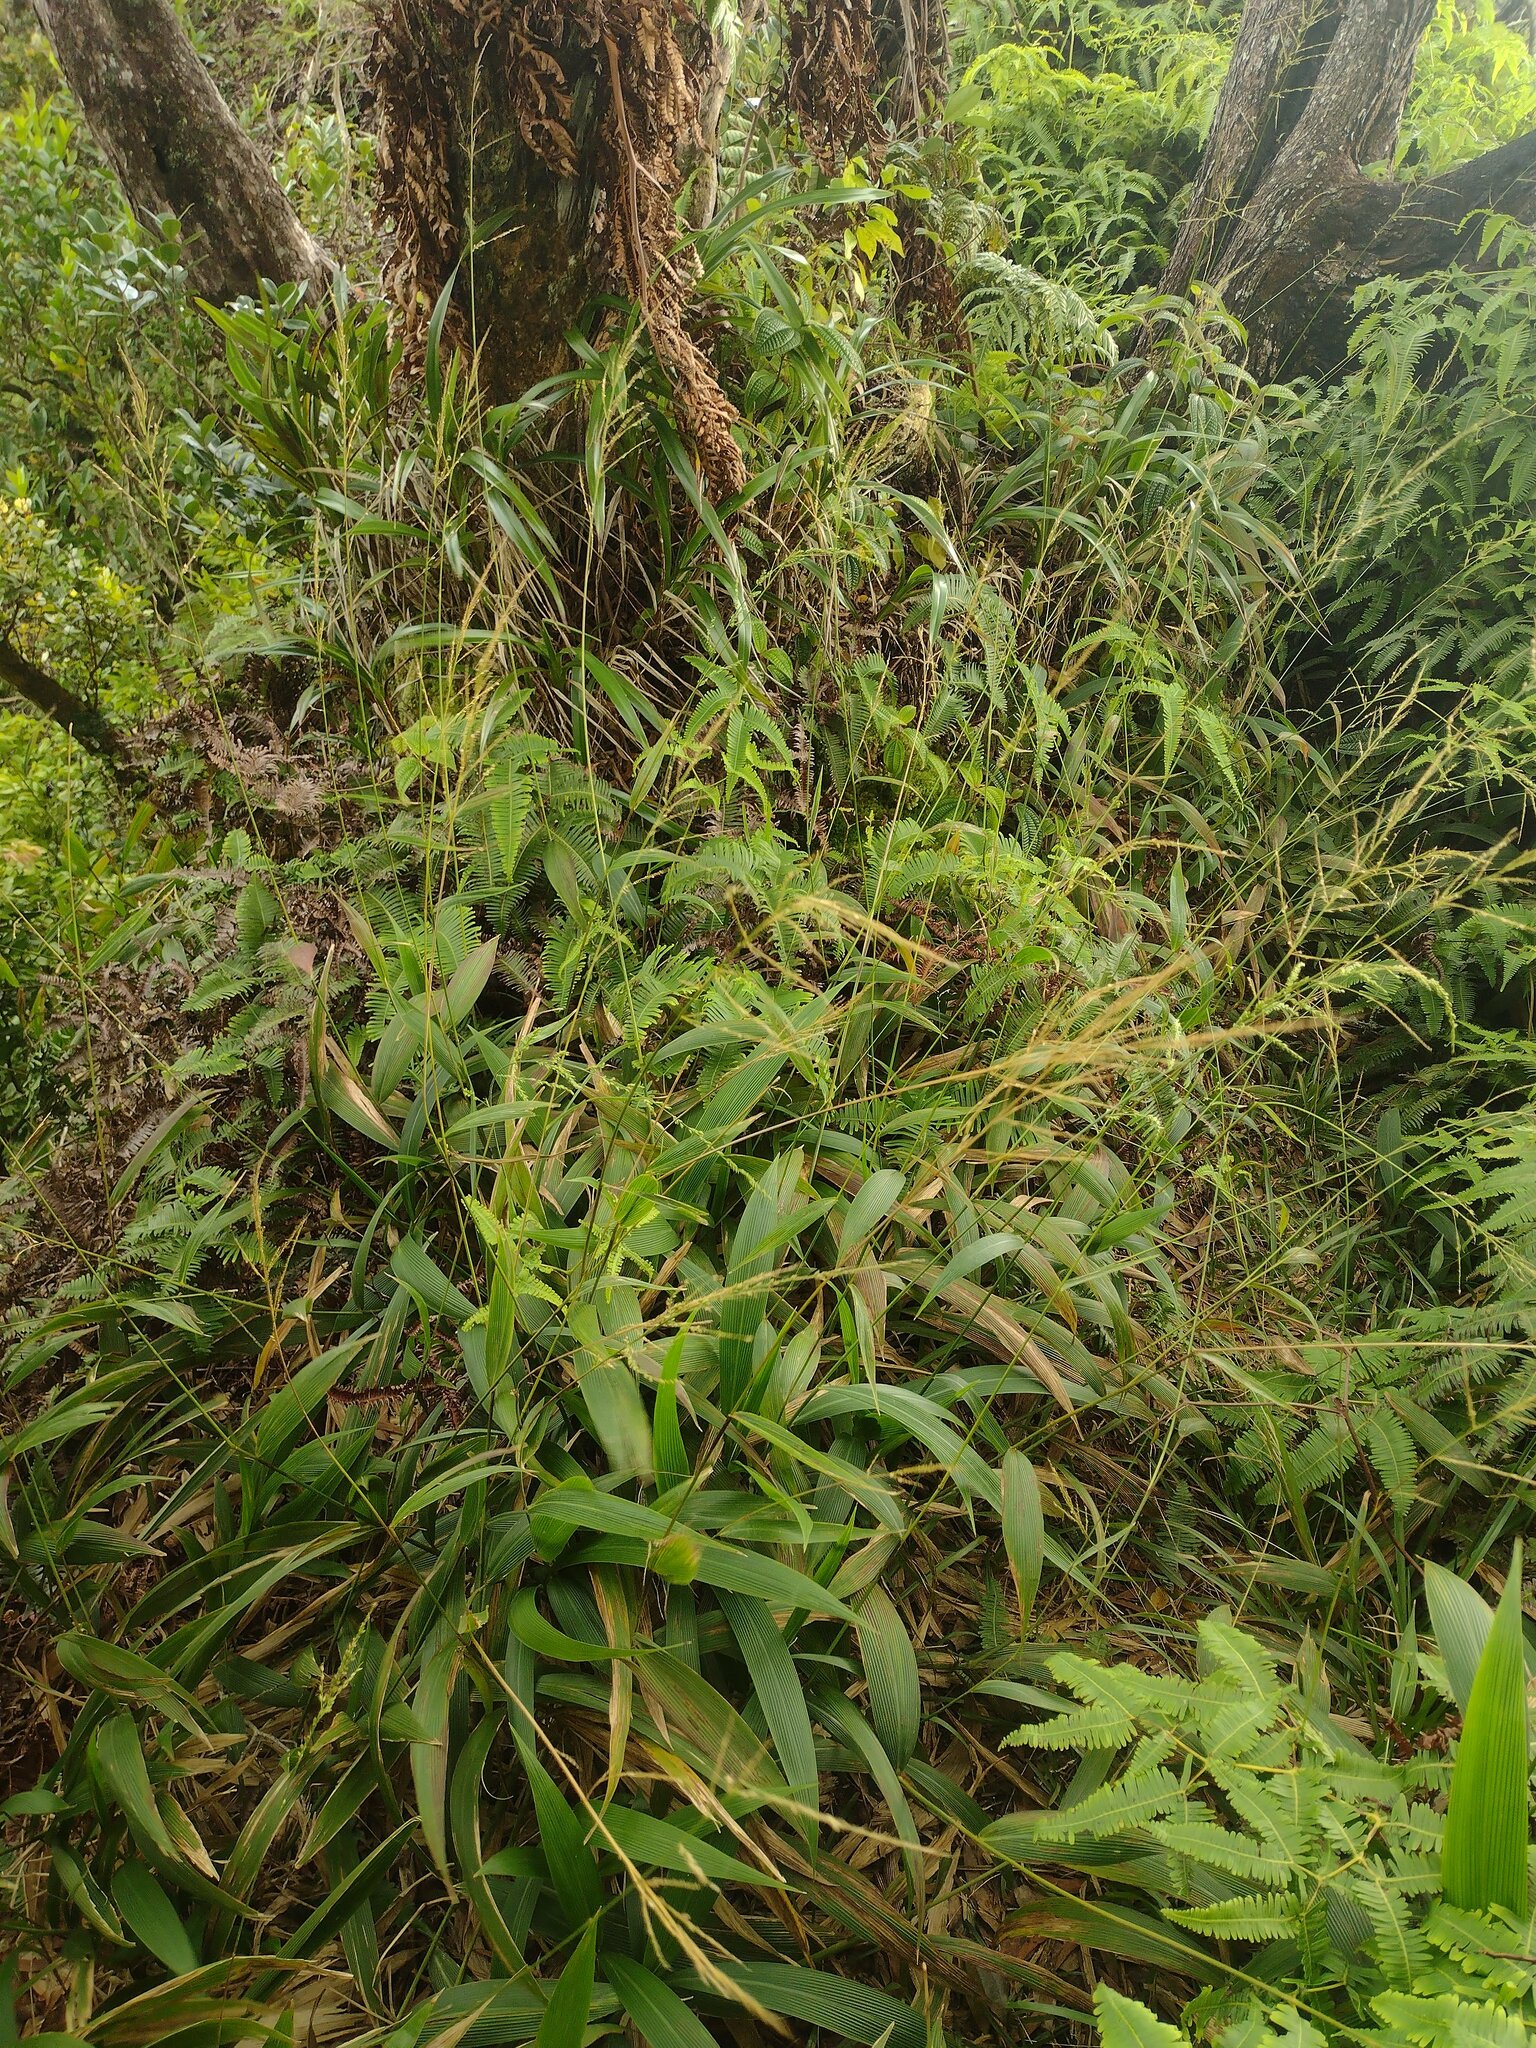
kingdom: Plantae
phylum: Tracheophyta
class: Liliopsida
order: Poales
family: Poaceae
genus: Setaria
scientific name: Setaria palmifolia
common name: Broadleaved bristlegrass
